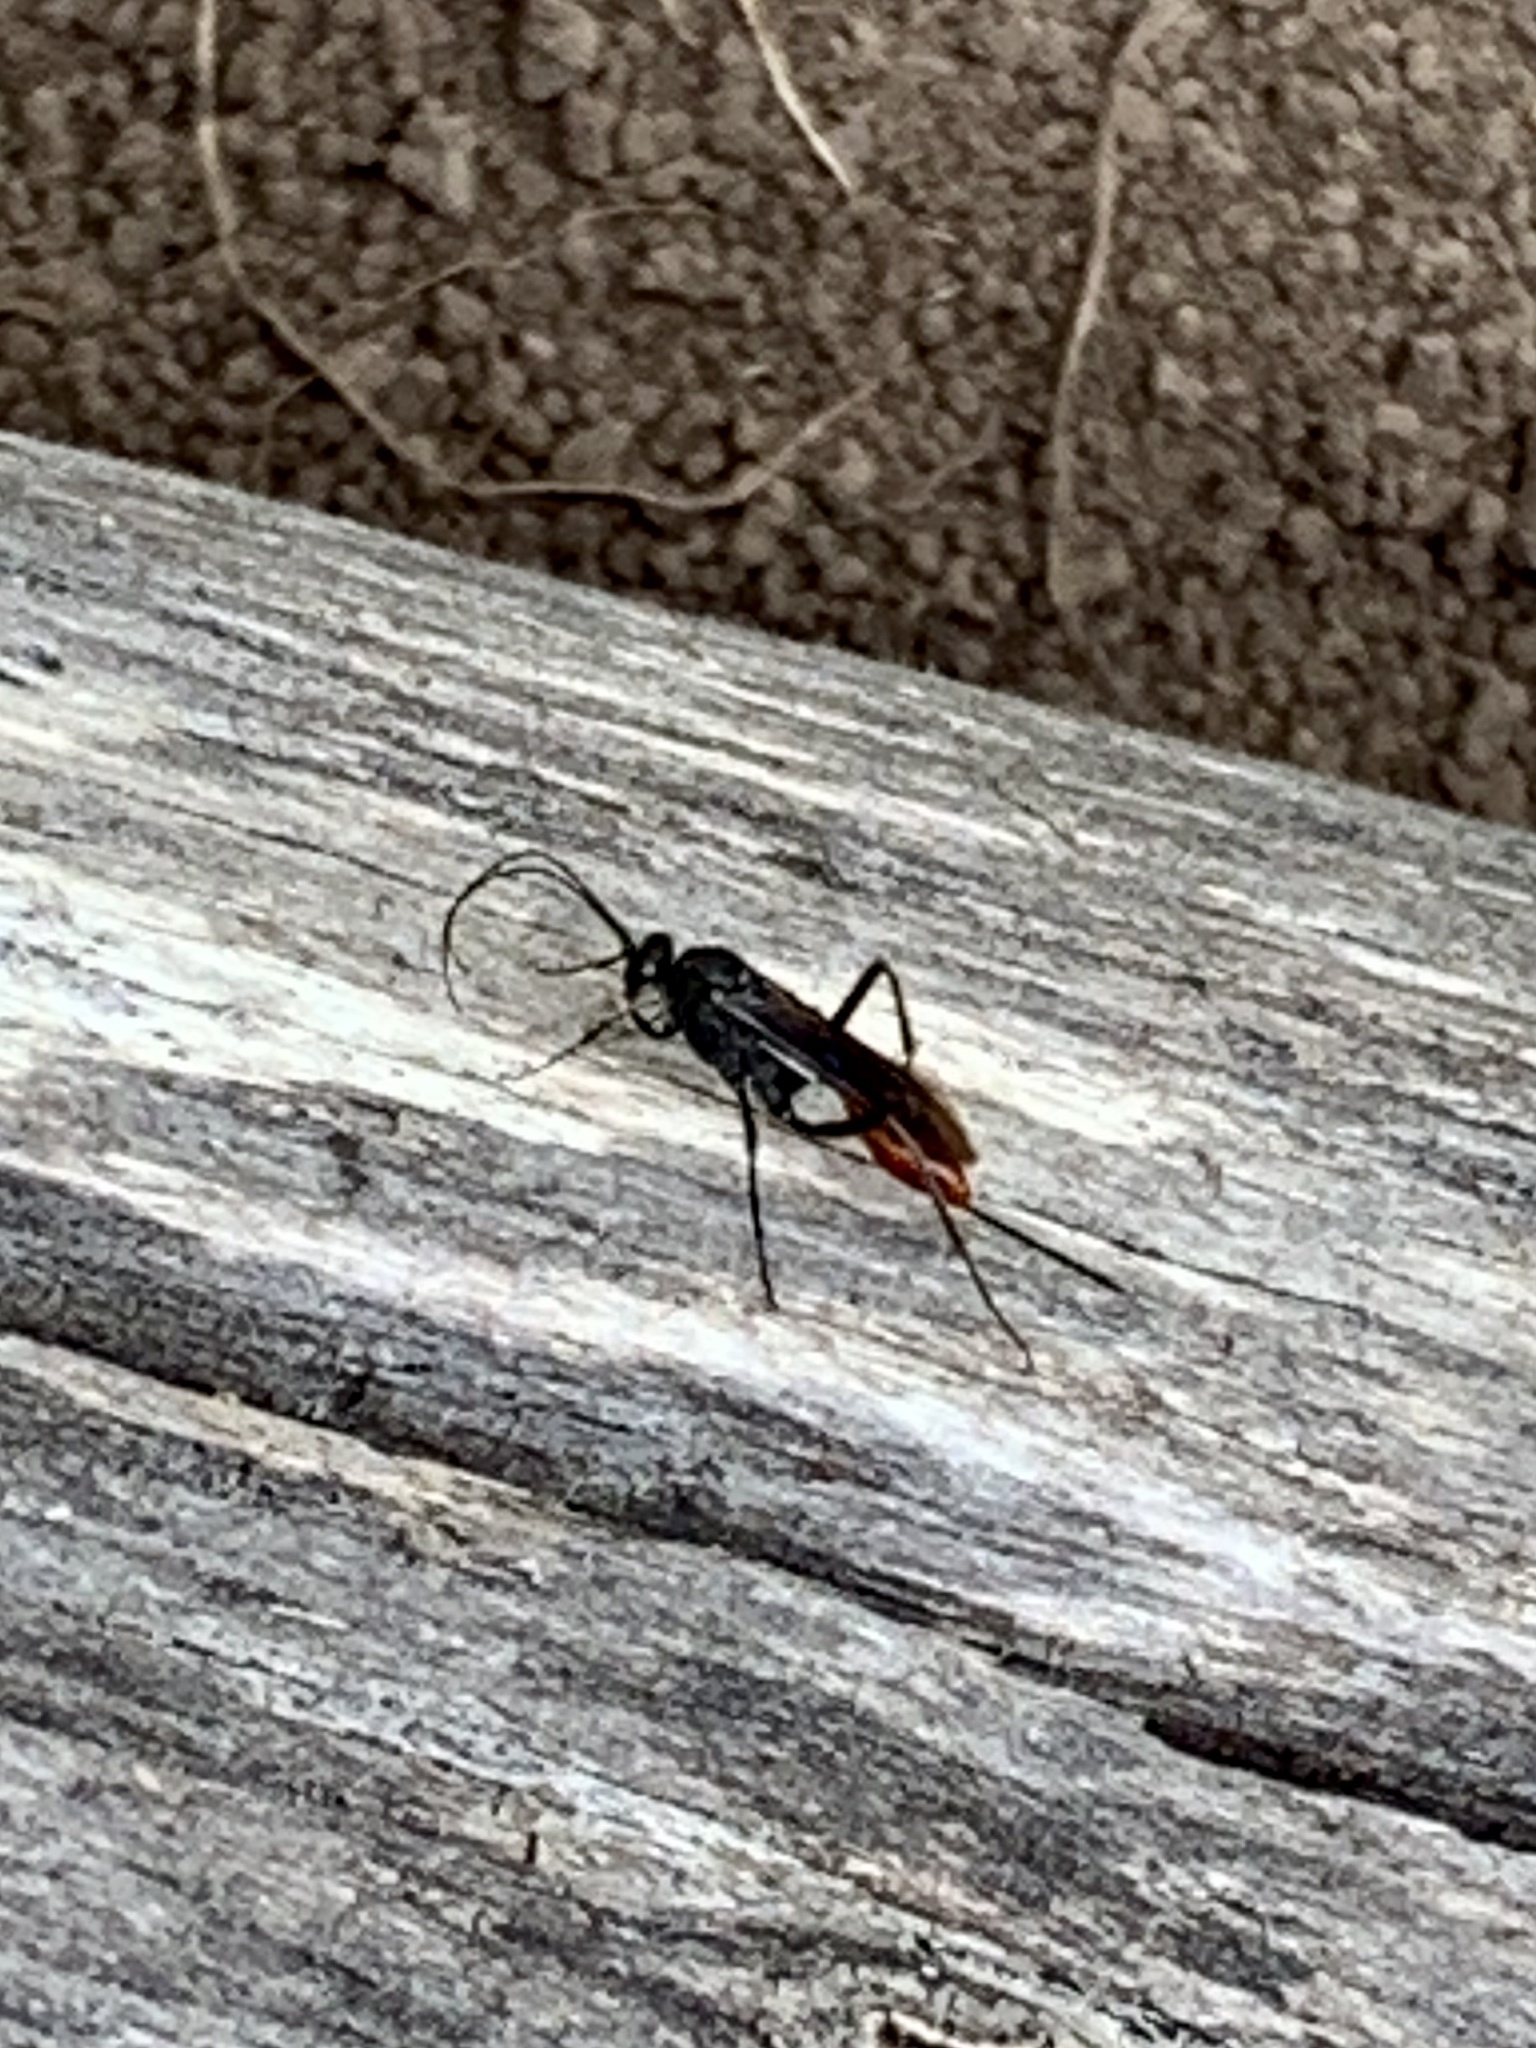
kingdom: Animalia
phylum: Arthropoda
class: Insecta
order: Hymenoptera
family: Ichneumonidae
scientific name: Ichneumonidae
